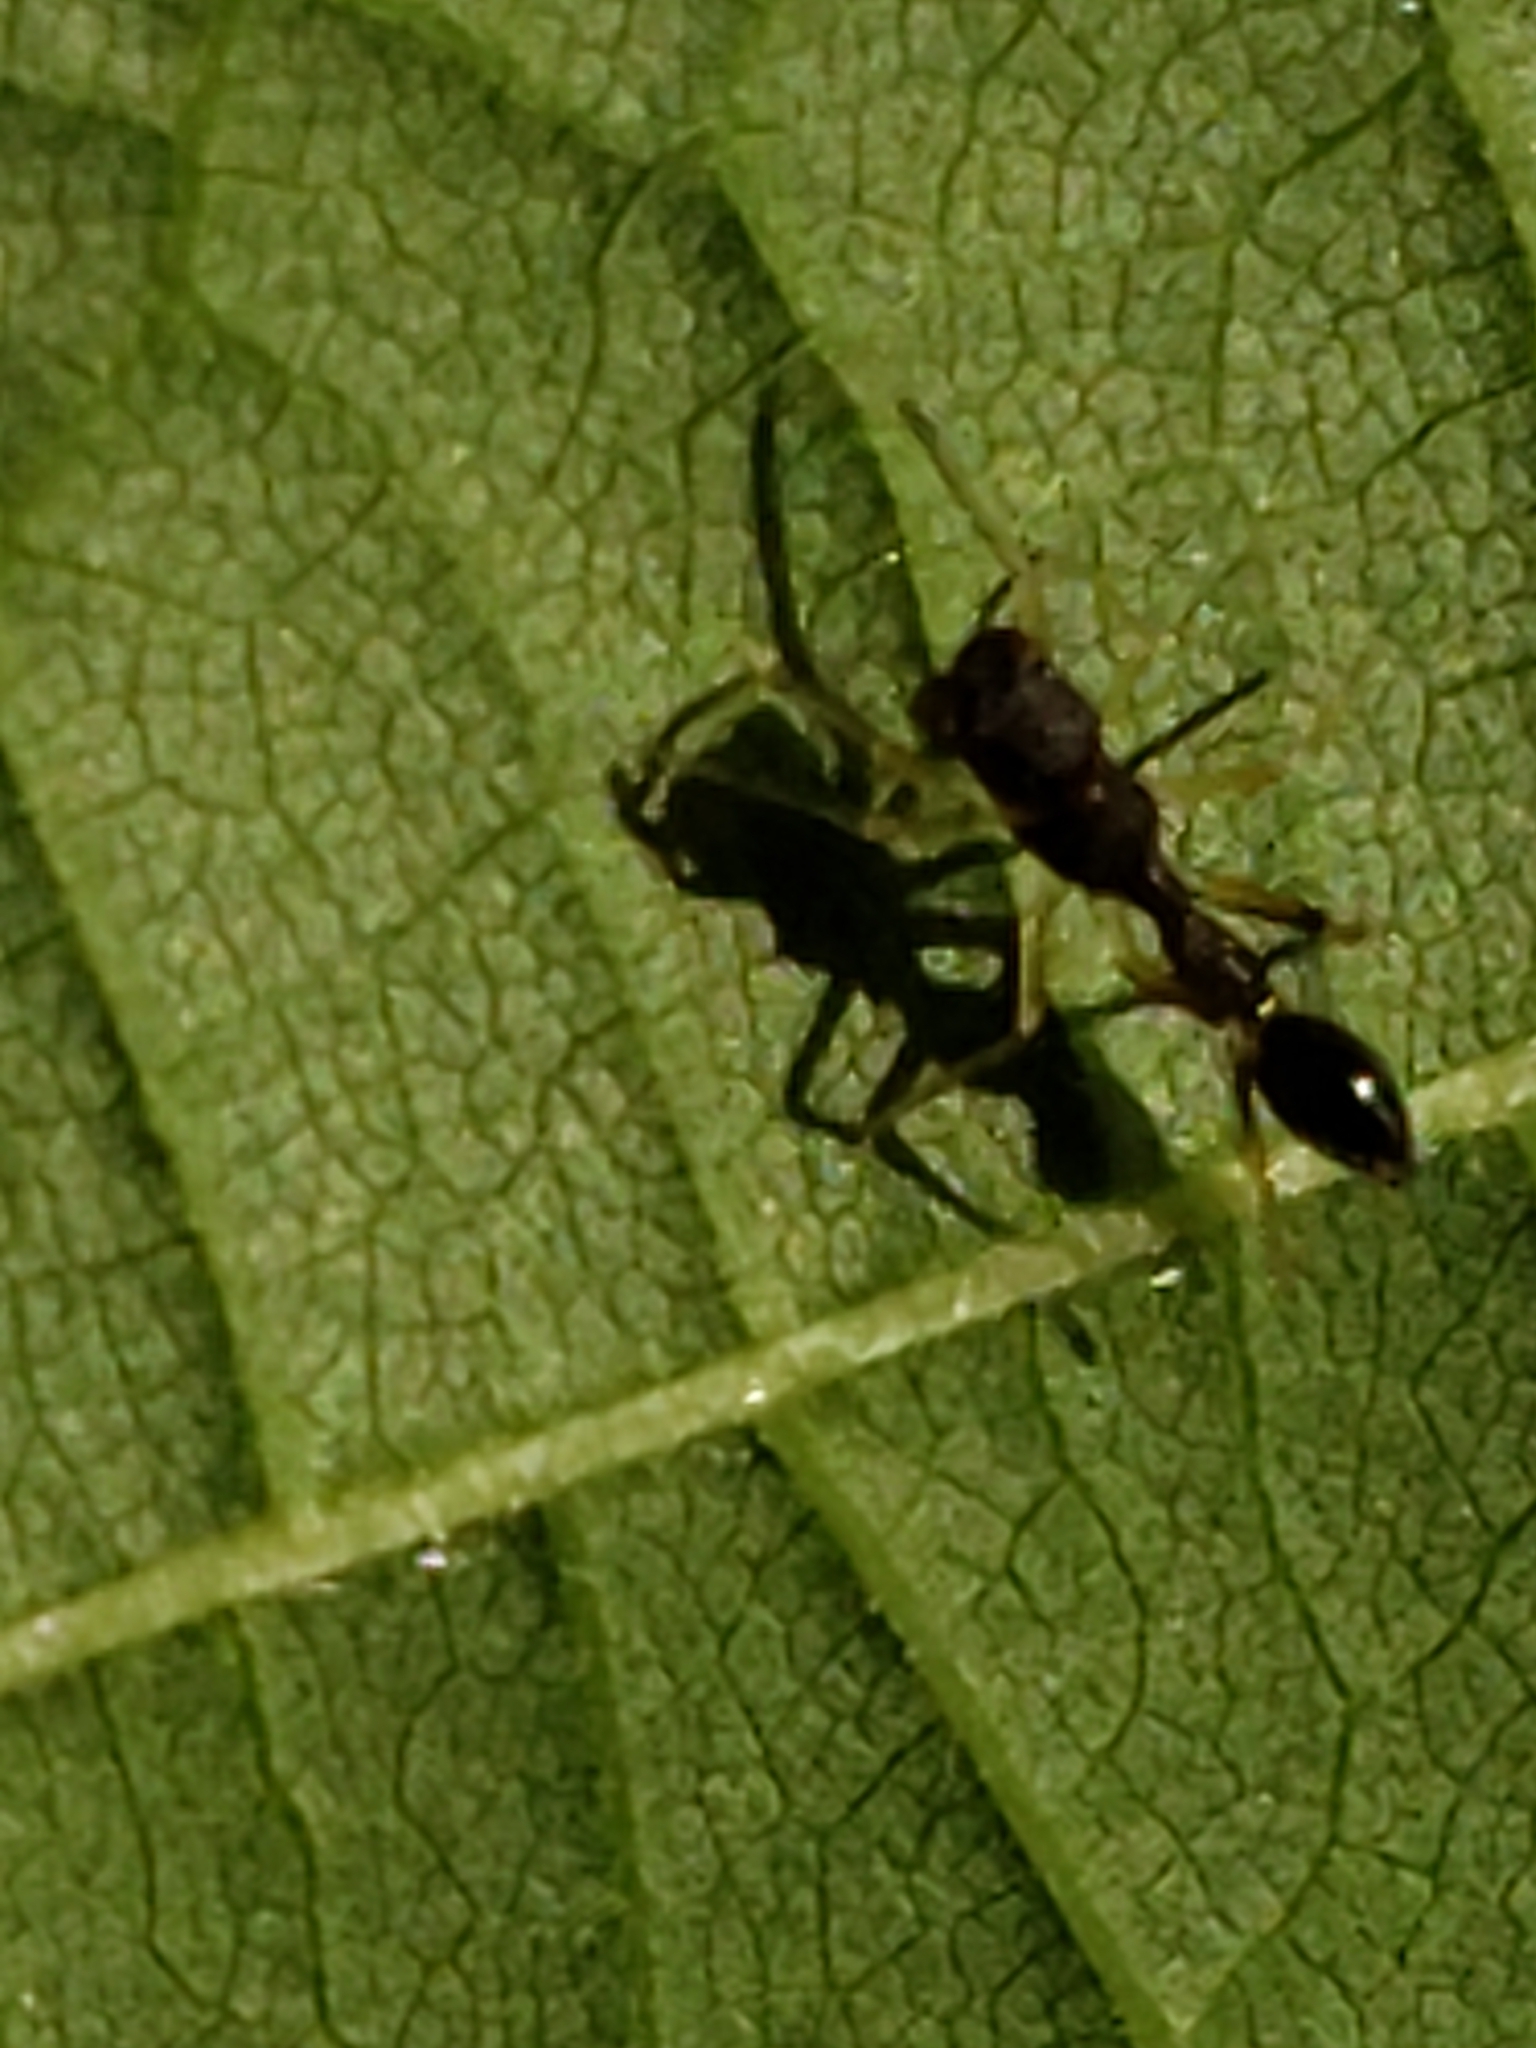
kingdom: Animalia
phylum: Arthropoda
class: Arachnida
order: Araneae
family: Salticidae
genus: Synemosyna
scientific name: Synemosyna formica
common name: Slender ant-mimic jumping spider
